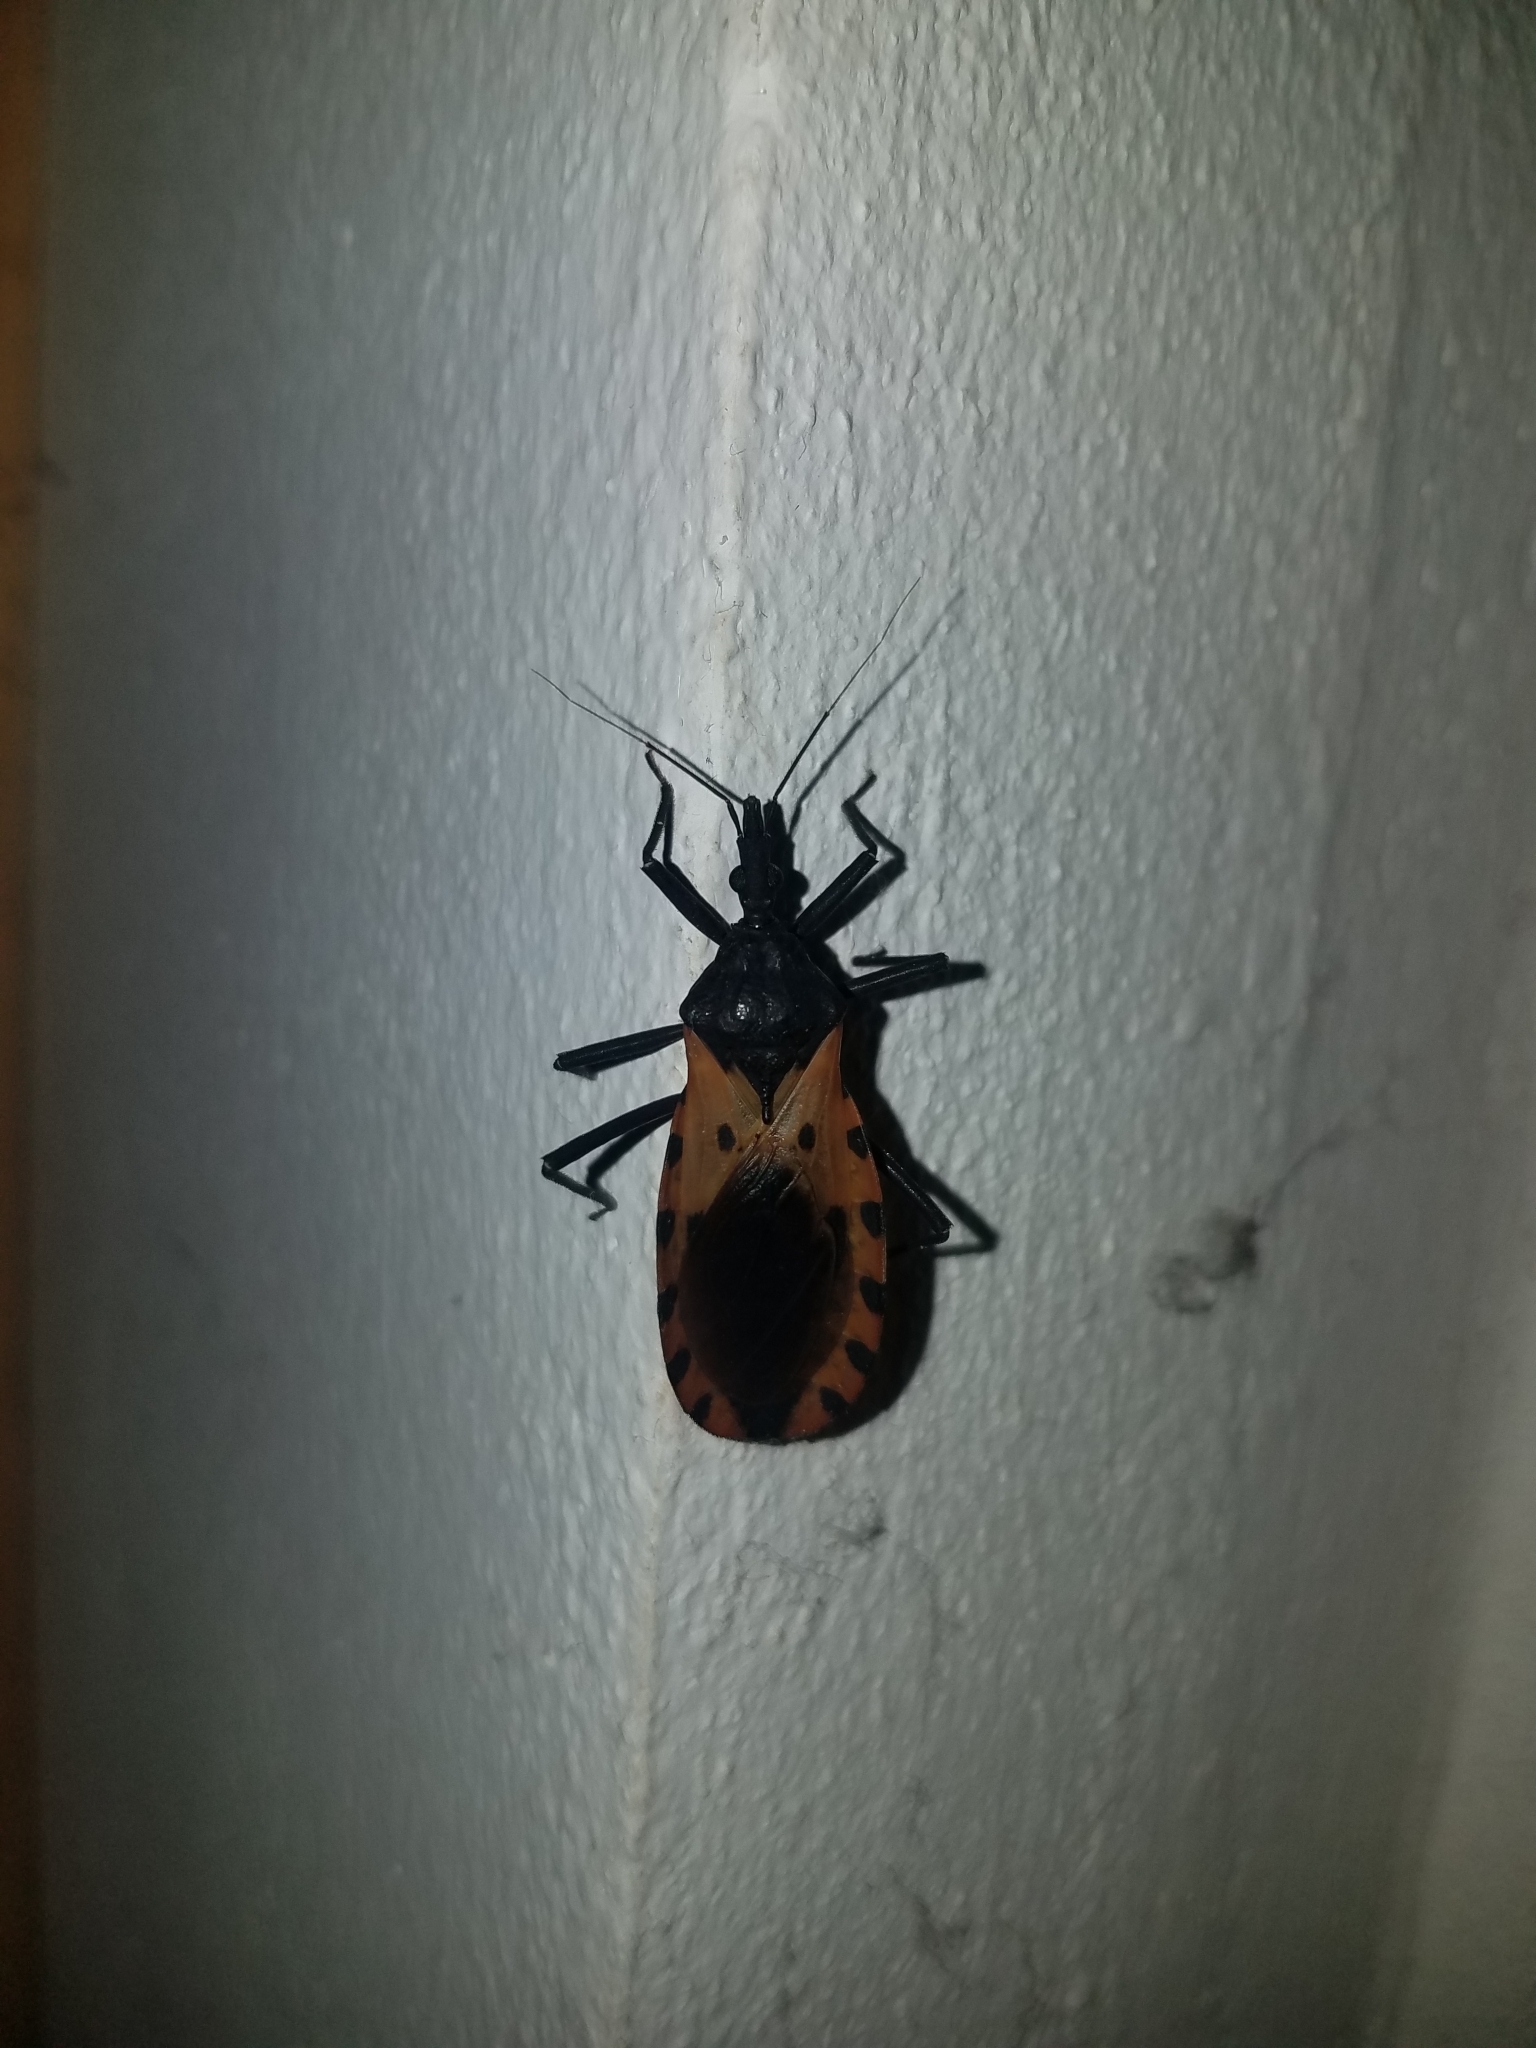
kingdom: Animalia
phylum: Arthropoda
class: Insecta
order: Hemiptera
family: Reduviidae
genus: Meccus
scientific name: Meccus dimidiatus
